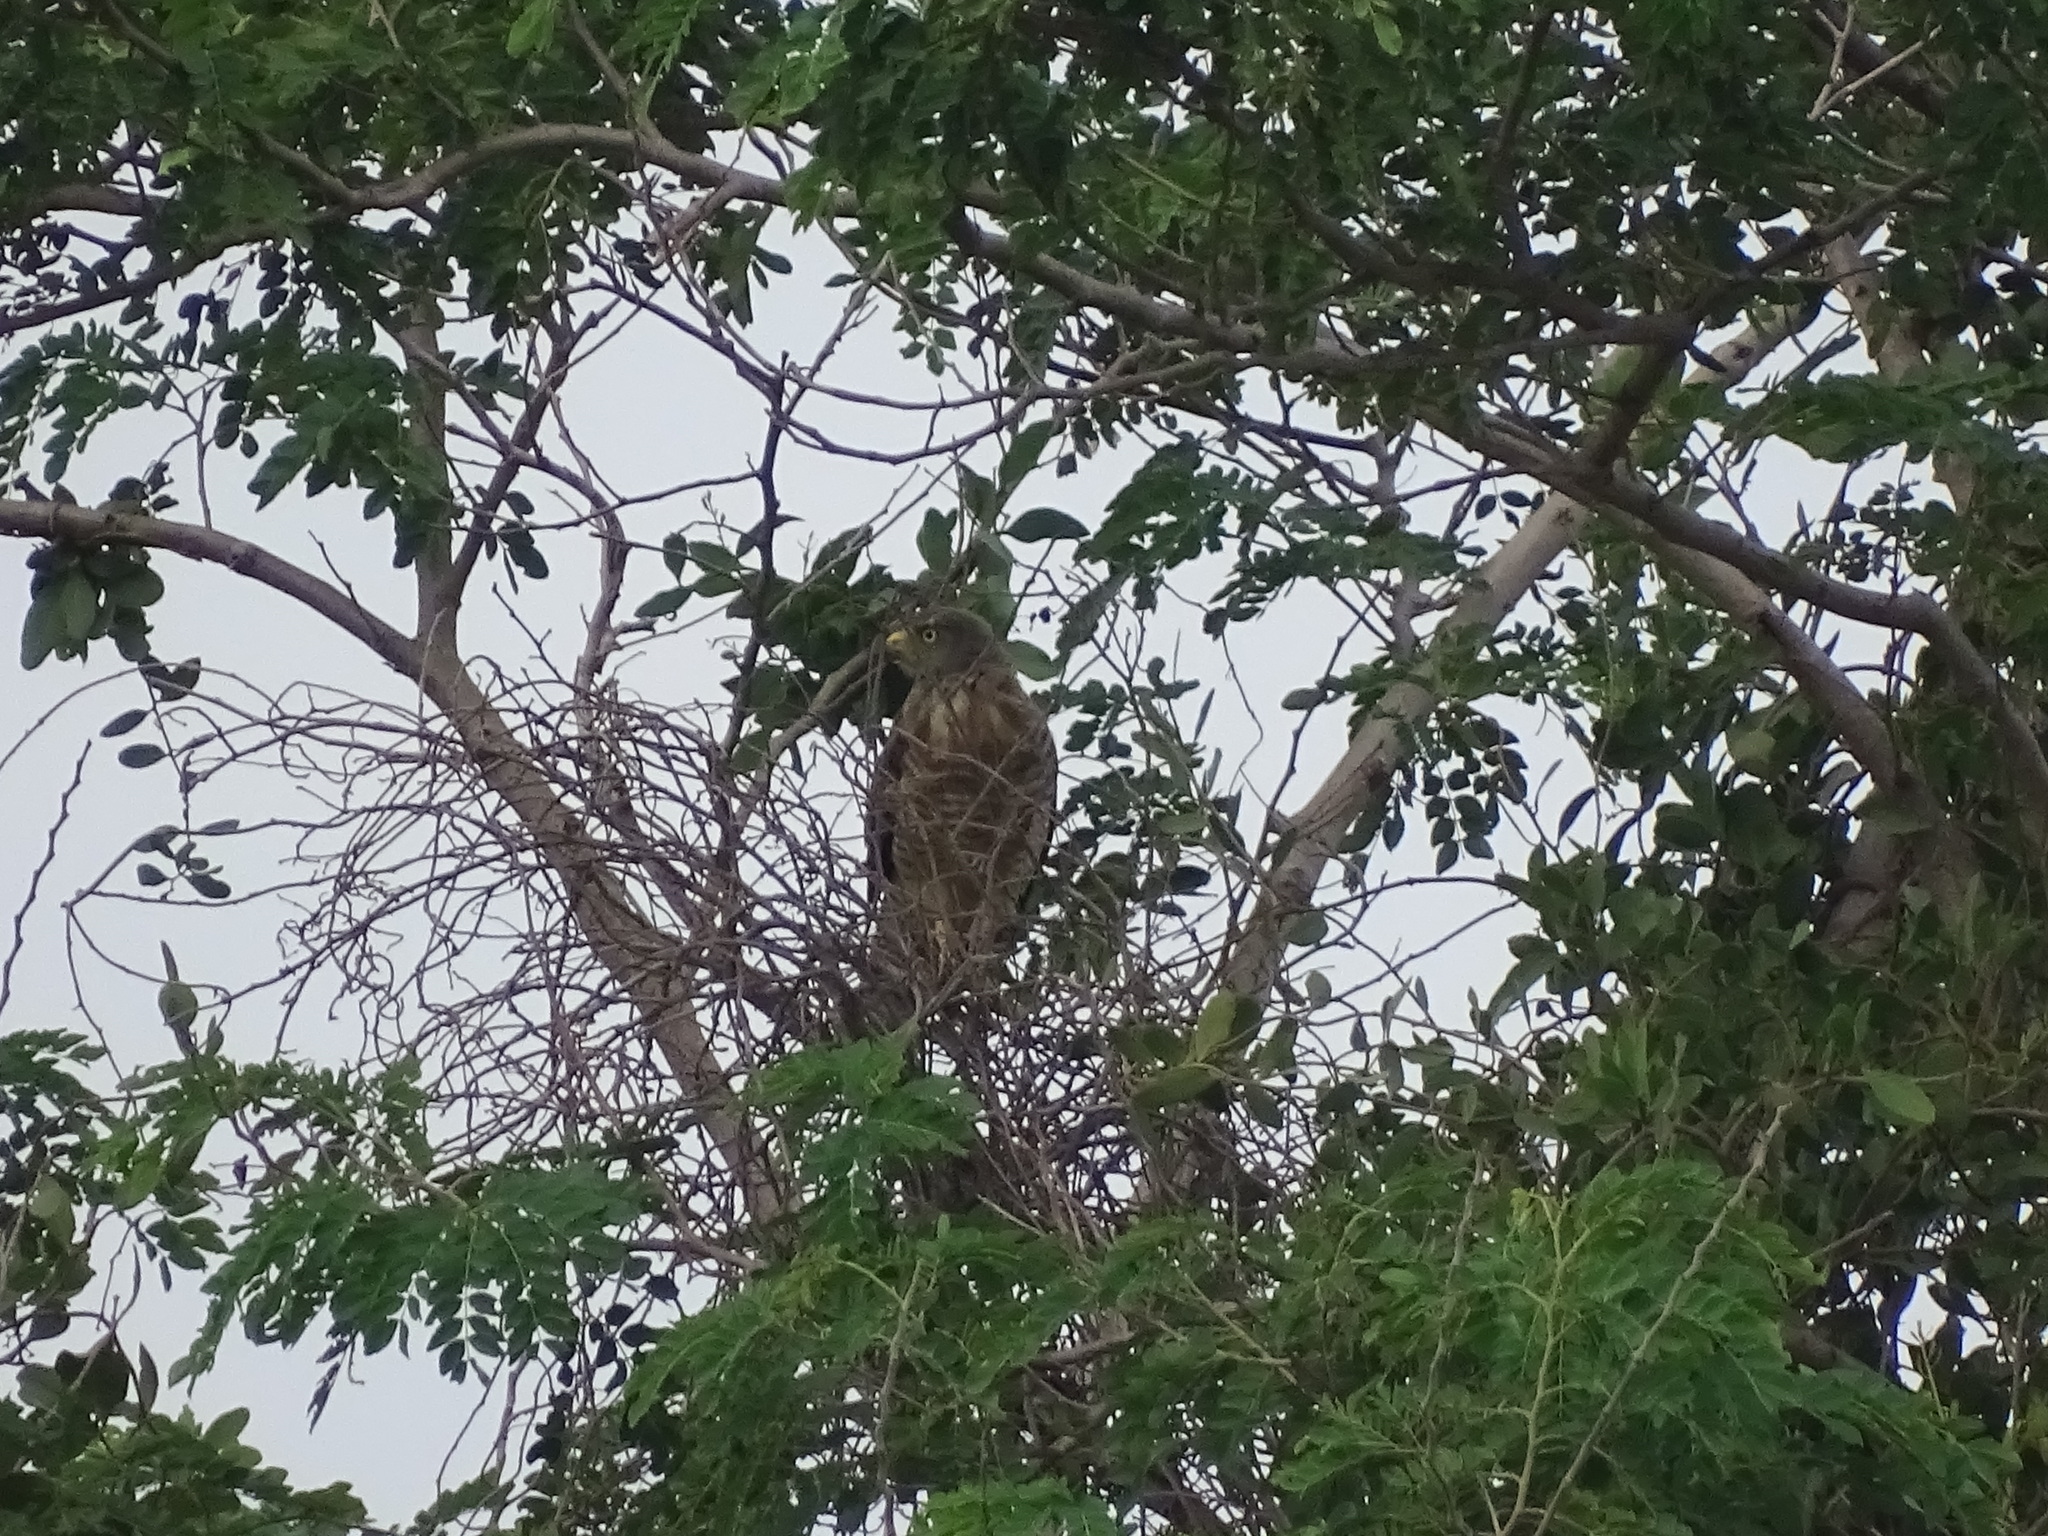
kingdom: Animalia
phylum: Chordata
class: Aves
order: Accipitriformes
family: Accipitridae
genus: Rupornis
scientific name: Rupornis magnirostris
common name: Roadside hawk
